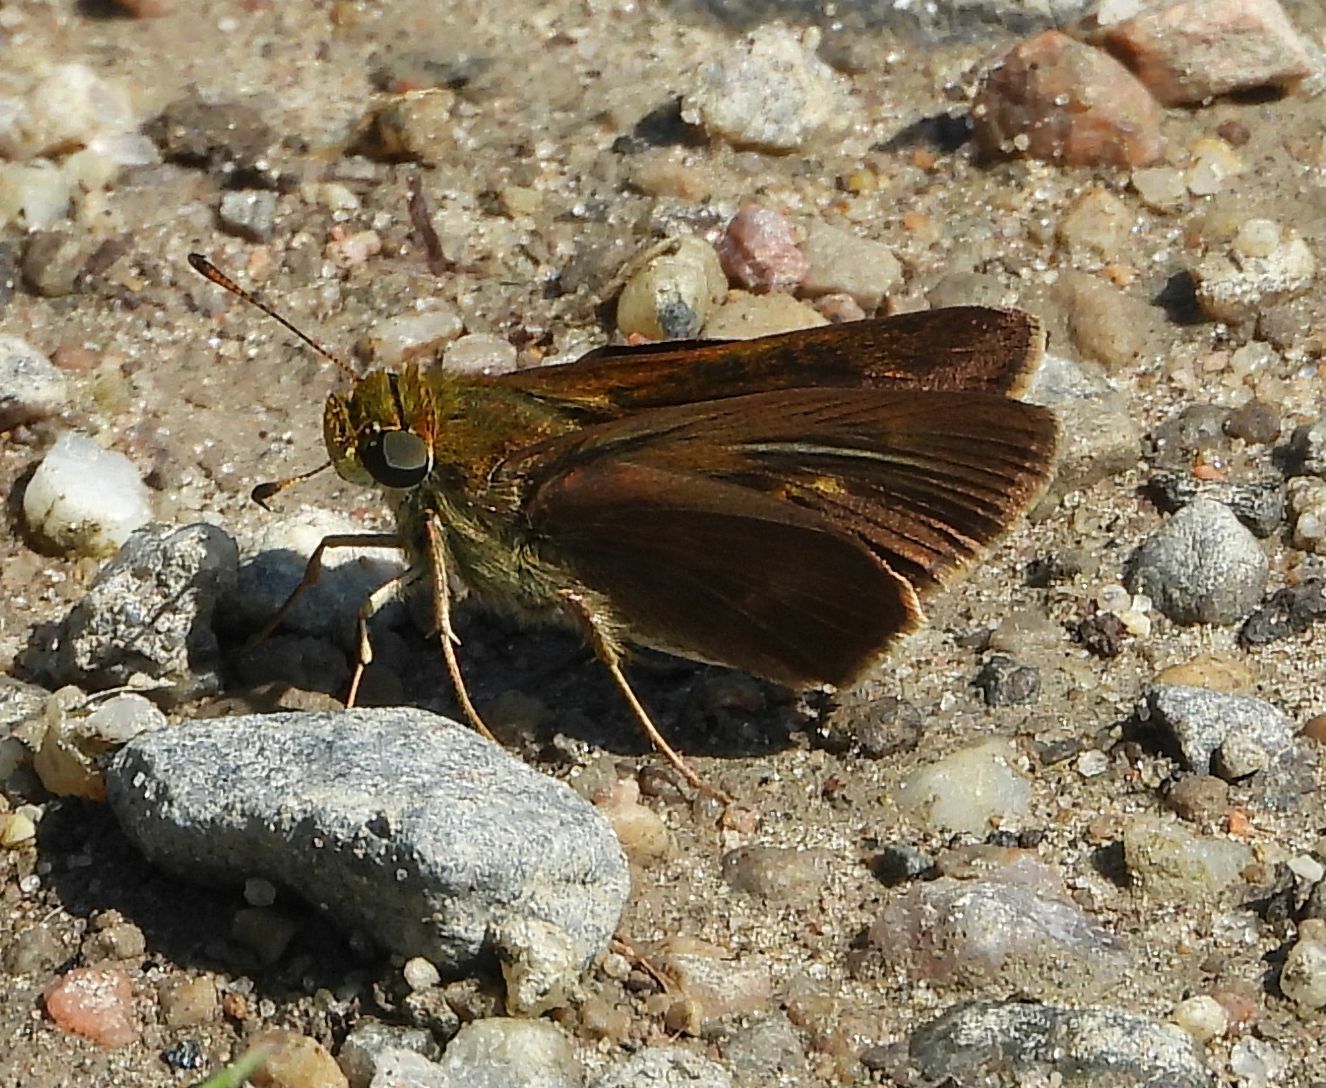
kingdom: Animalia
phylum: Arthropoda
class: Insecta
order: Lepidoptera
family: Hesperiidae
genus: Euphyes
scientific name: Euphyes vestris
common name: Dun skipper
